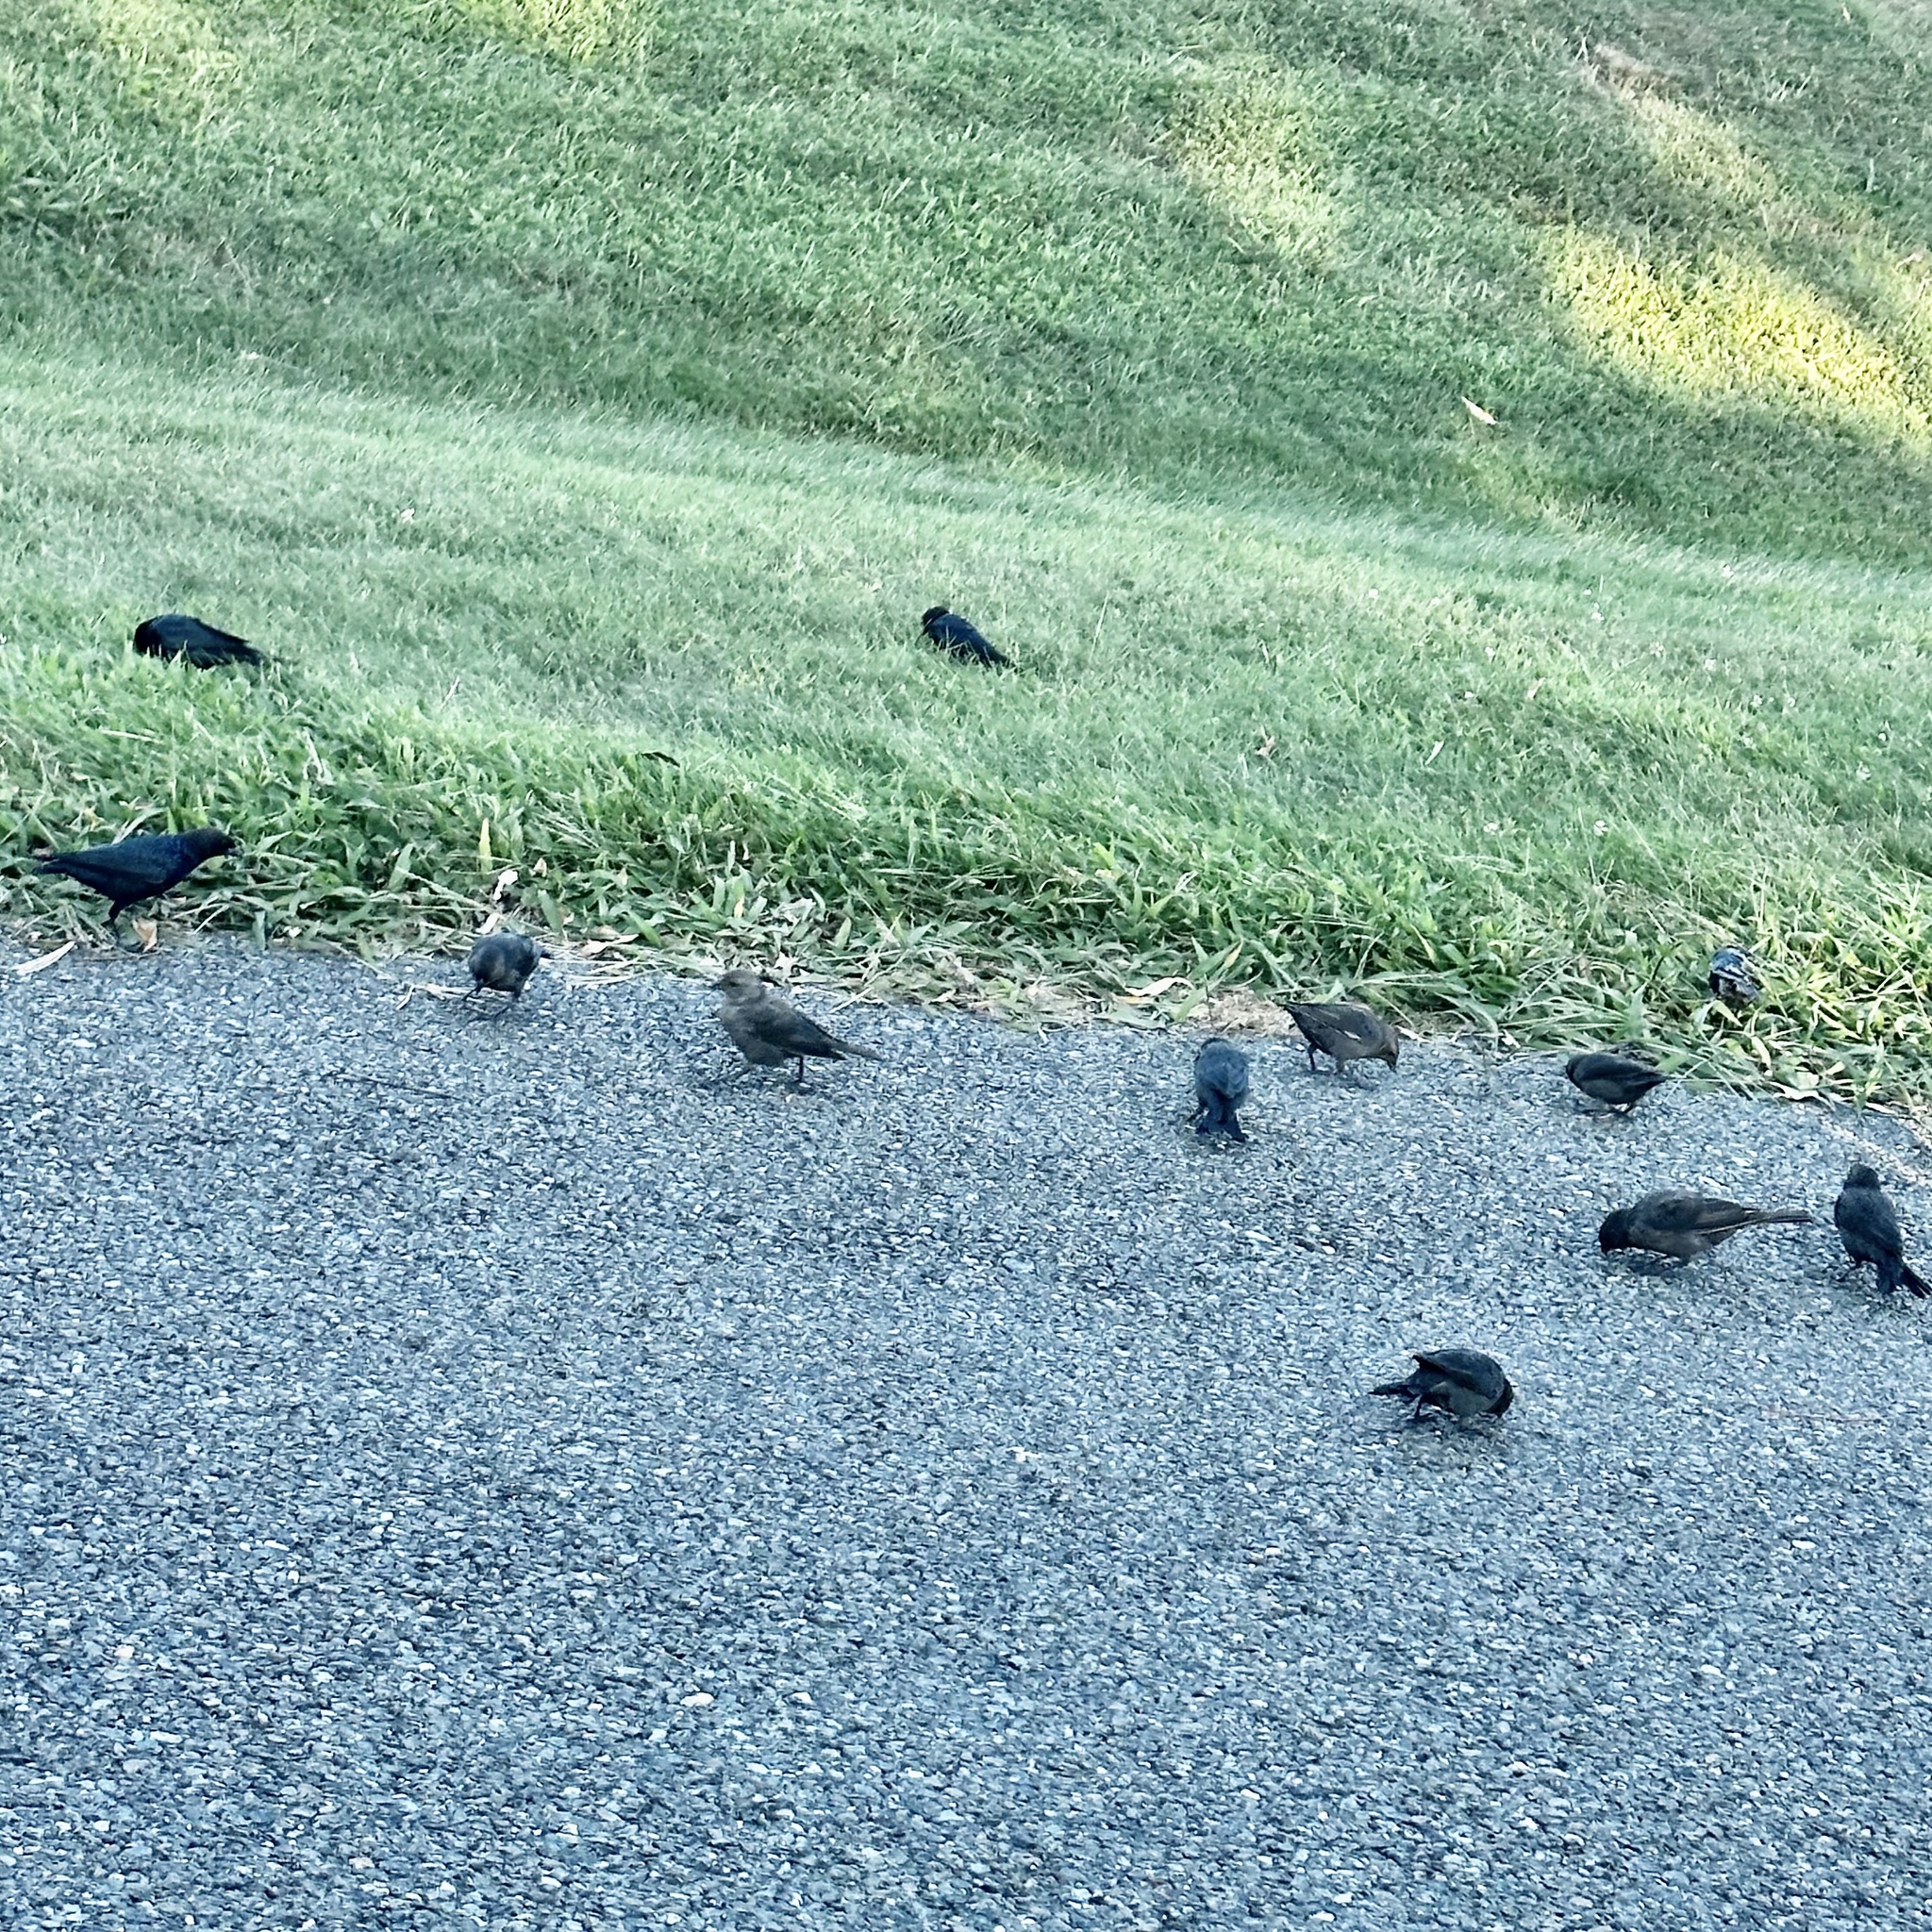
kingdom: Animalia
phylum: Chordata
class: Aves
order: Passeriformes
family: Icteridae
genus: Molothrus
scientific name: Molothrus ater
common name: Brown-headed cowbird
